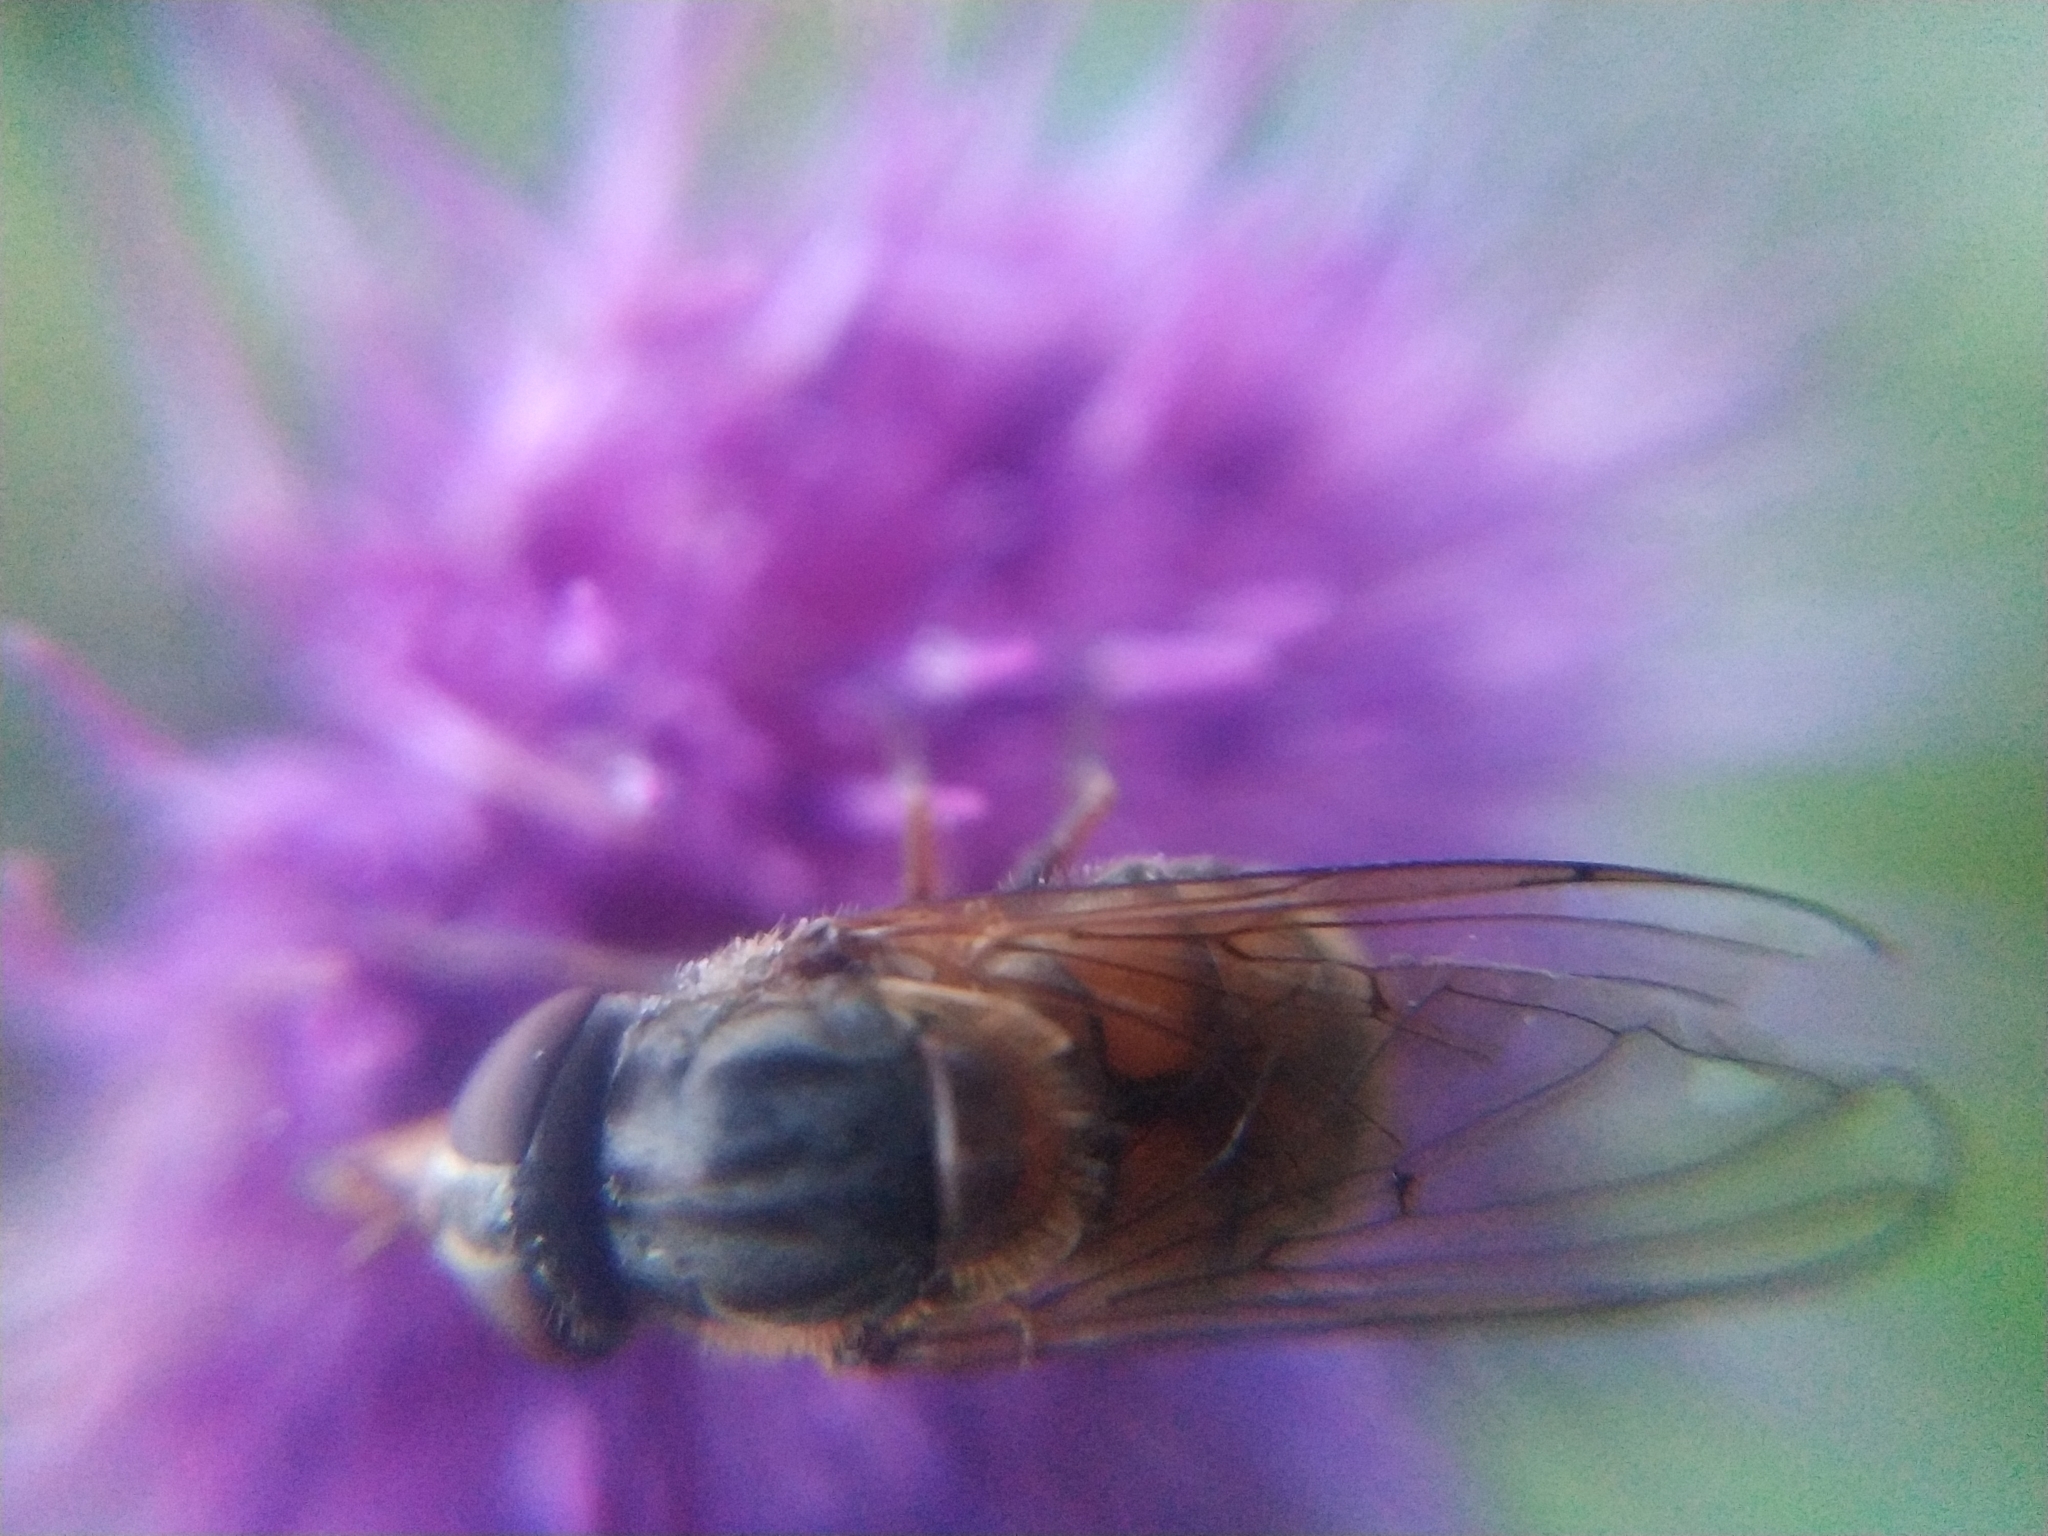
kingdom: Animalia
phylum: Arthropoda
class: Insecta
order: Diptera
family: Syrphidae
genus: Rhingia
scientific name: Rhingia campestris
